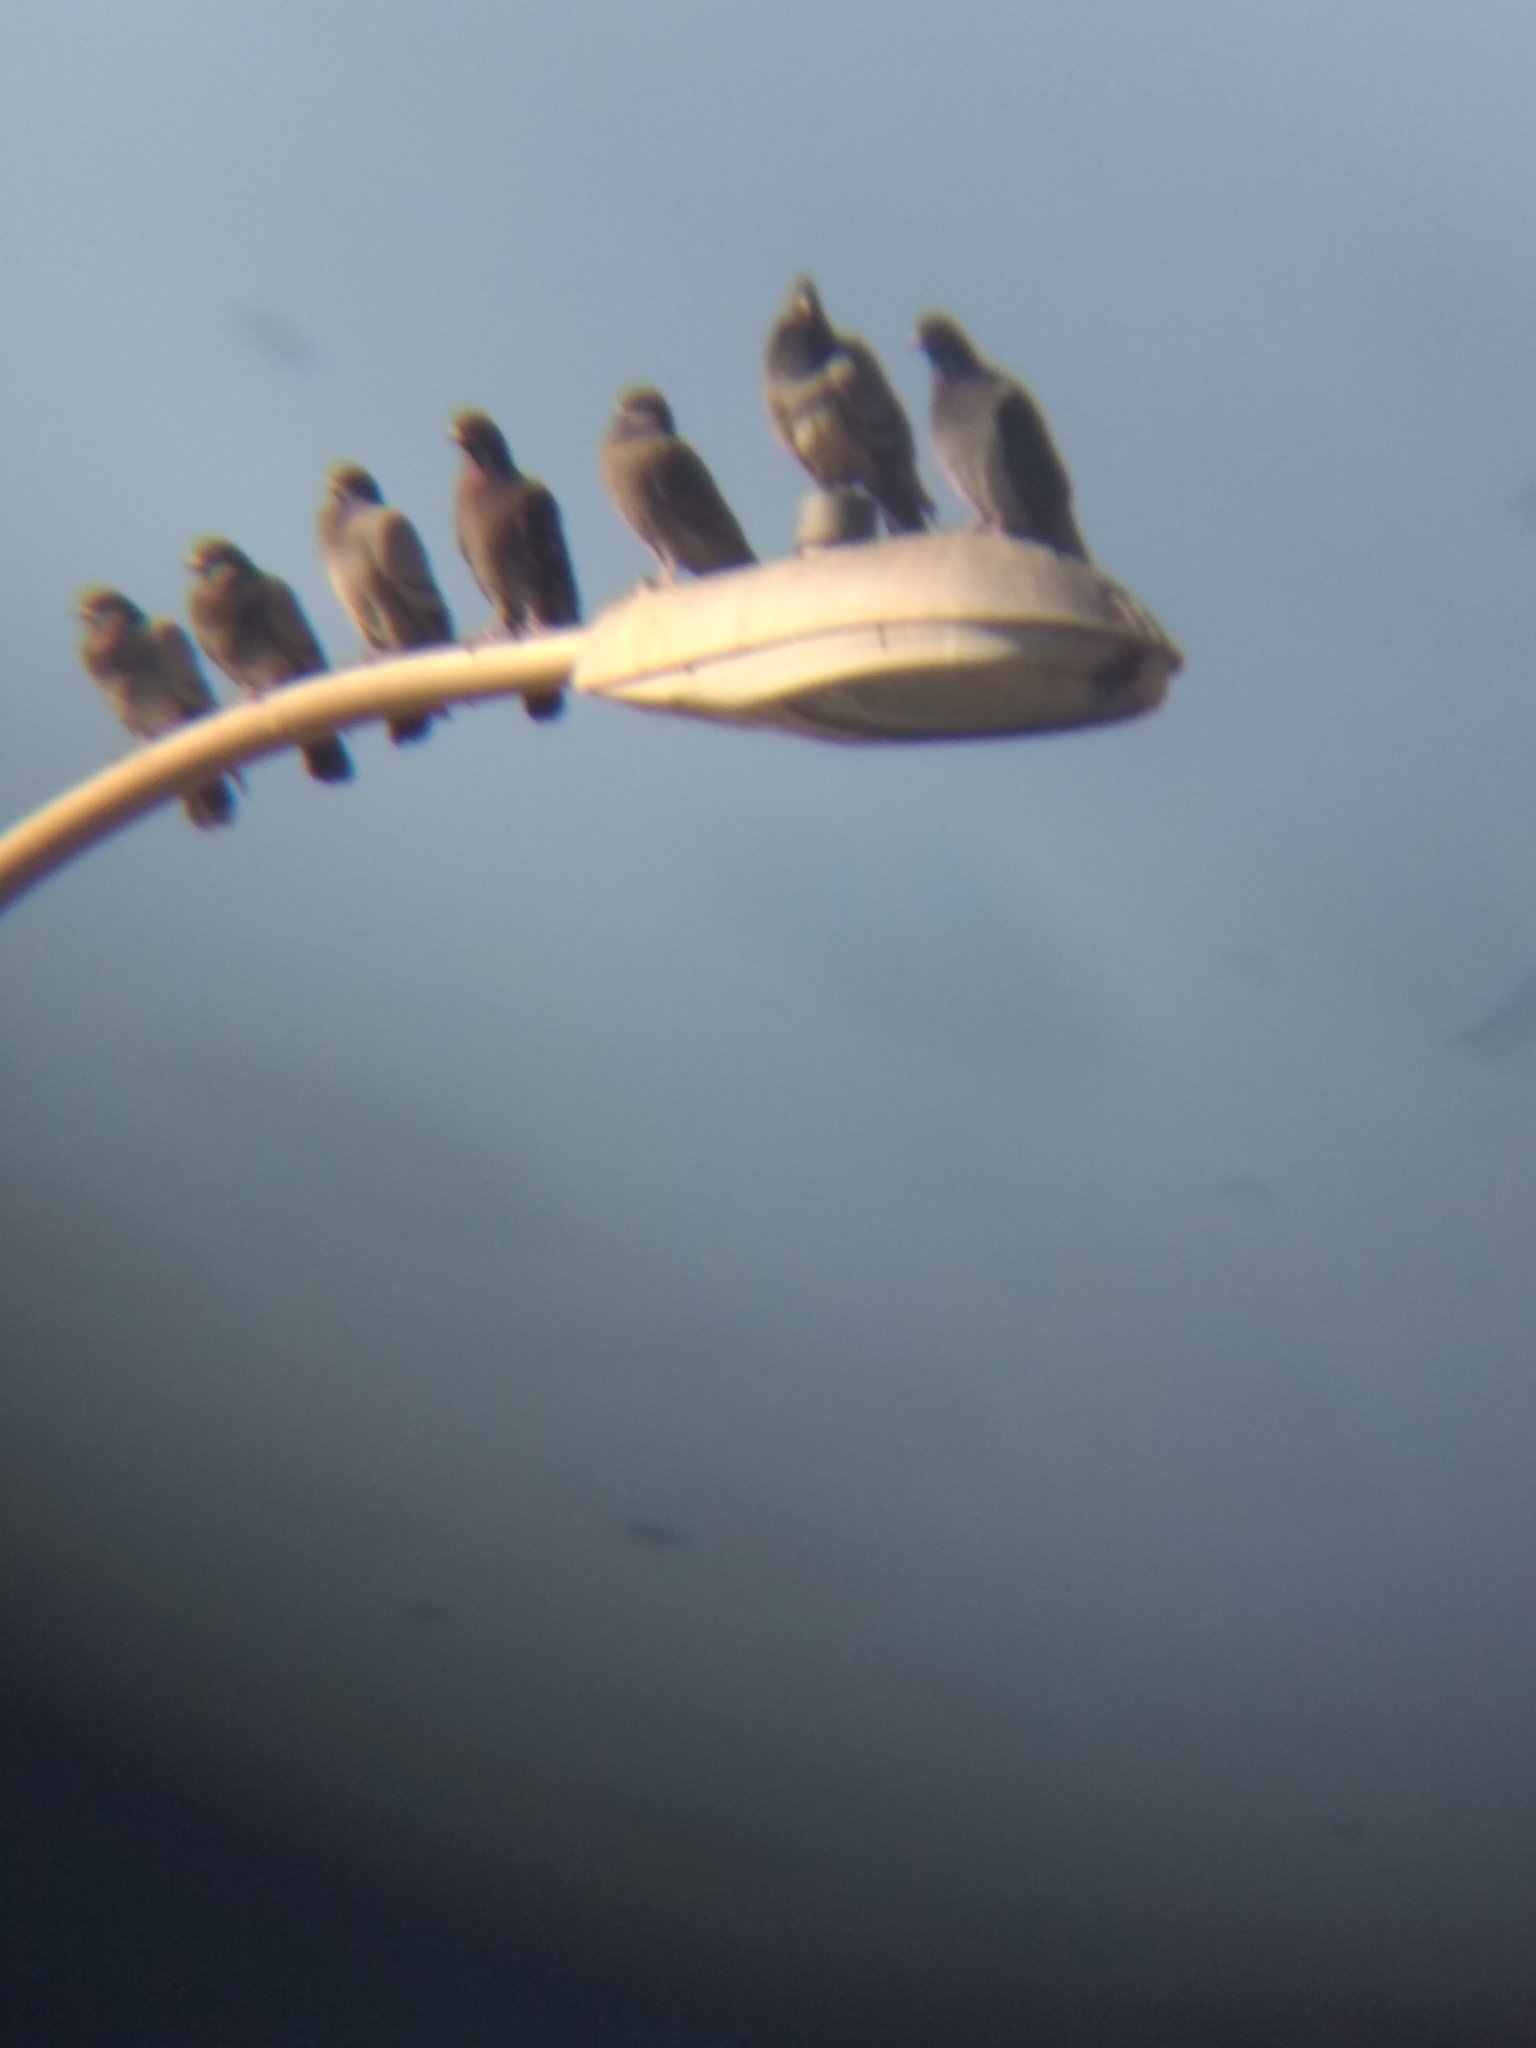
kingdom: Animalia
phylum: Chordata
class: Aves
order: Columbiformes
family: Columbidae
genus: Columba
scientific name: Columba livia
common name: Rock pigeon
